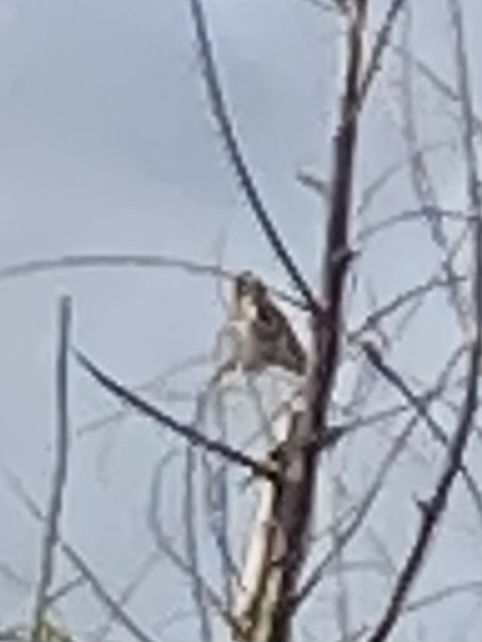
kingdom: Animalia
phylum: Chordata
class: Aves
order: Passeriformes
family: Fringillidae
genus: Carduelis
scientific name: Carduelis carduelis
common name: European goldfinch
